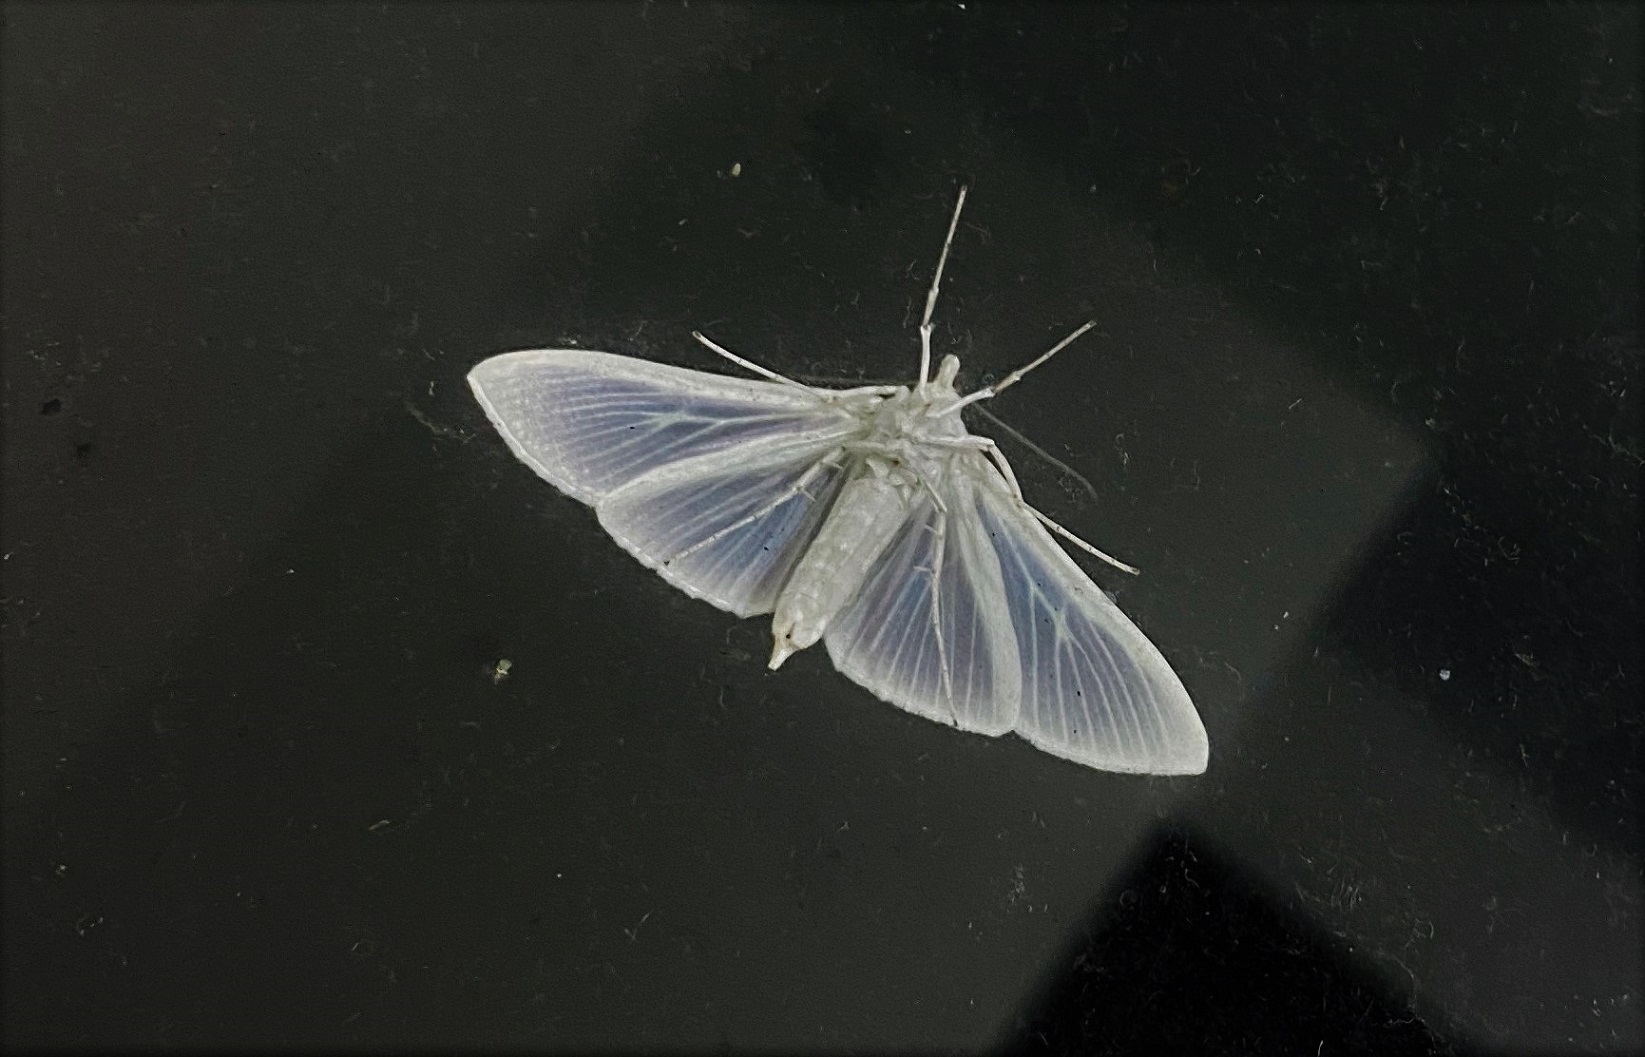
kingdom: Animalia
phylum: Arthropoda
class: Insecta
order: Lepidoptera
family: Crambidae
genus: Palpita
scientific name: Palpita flegia
